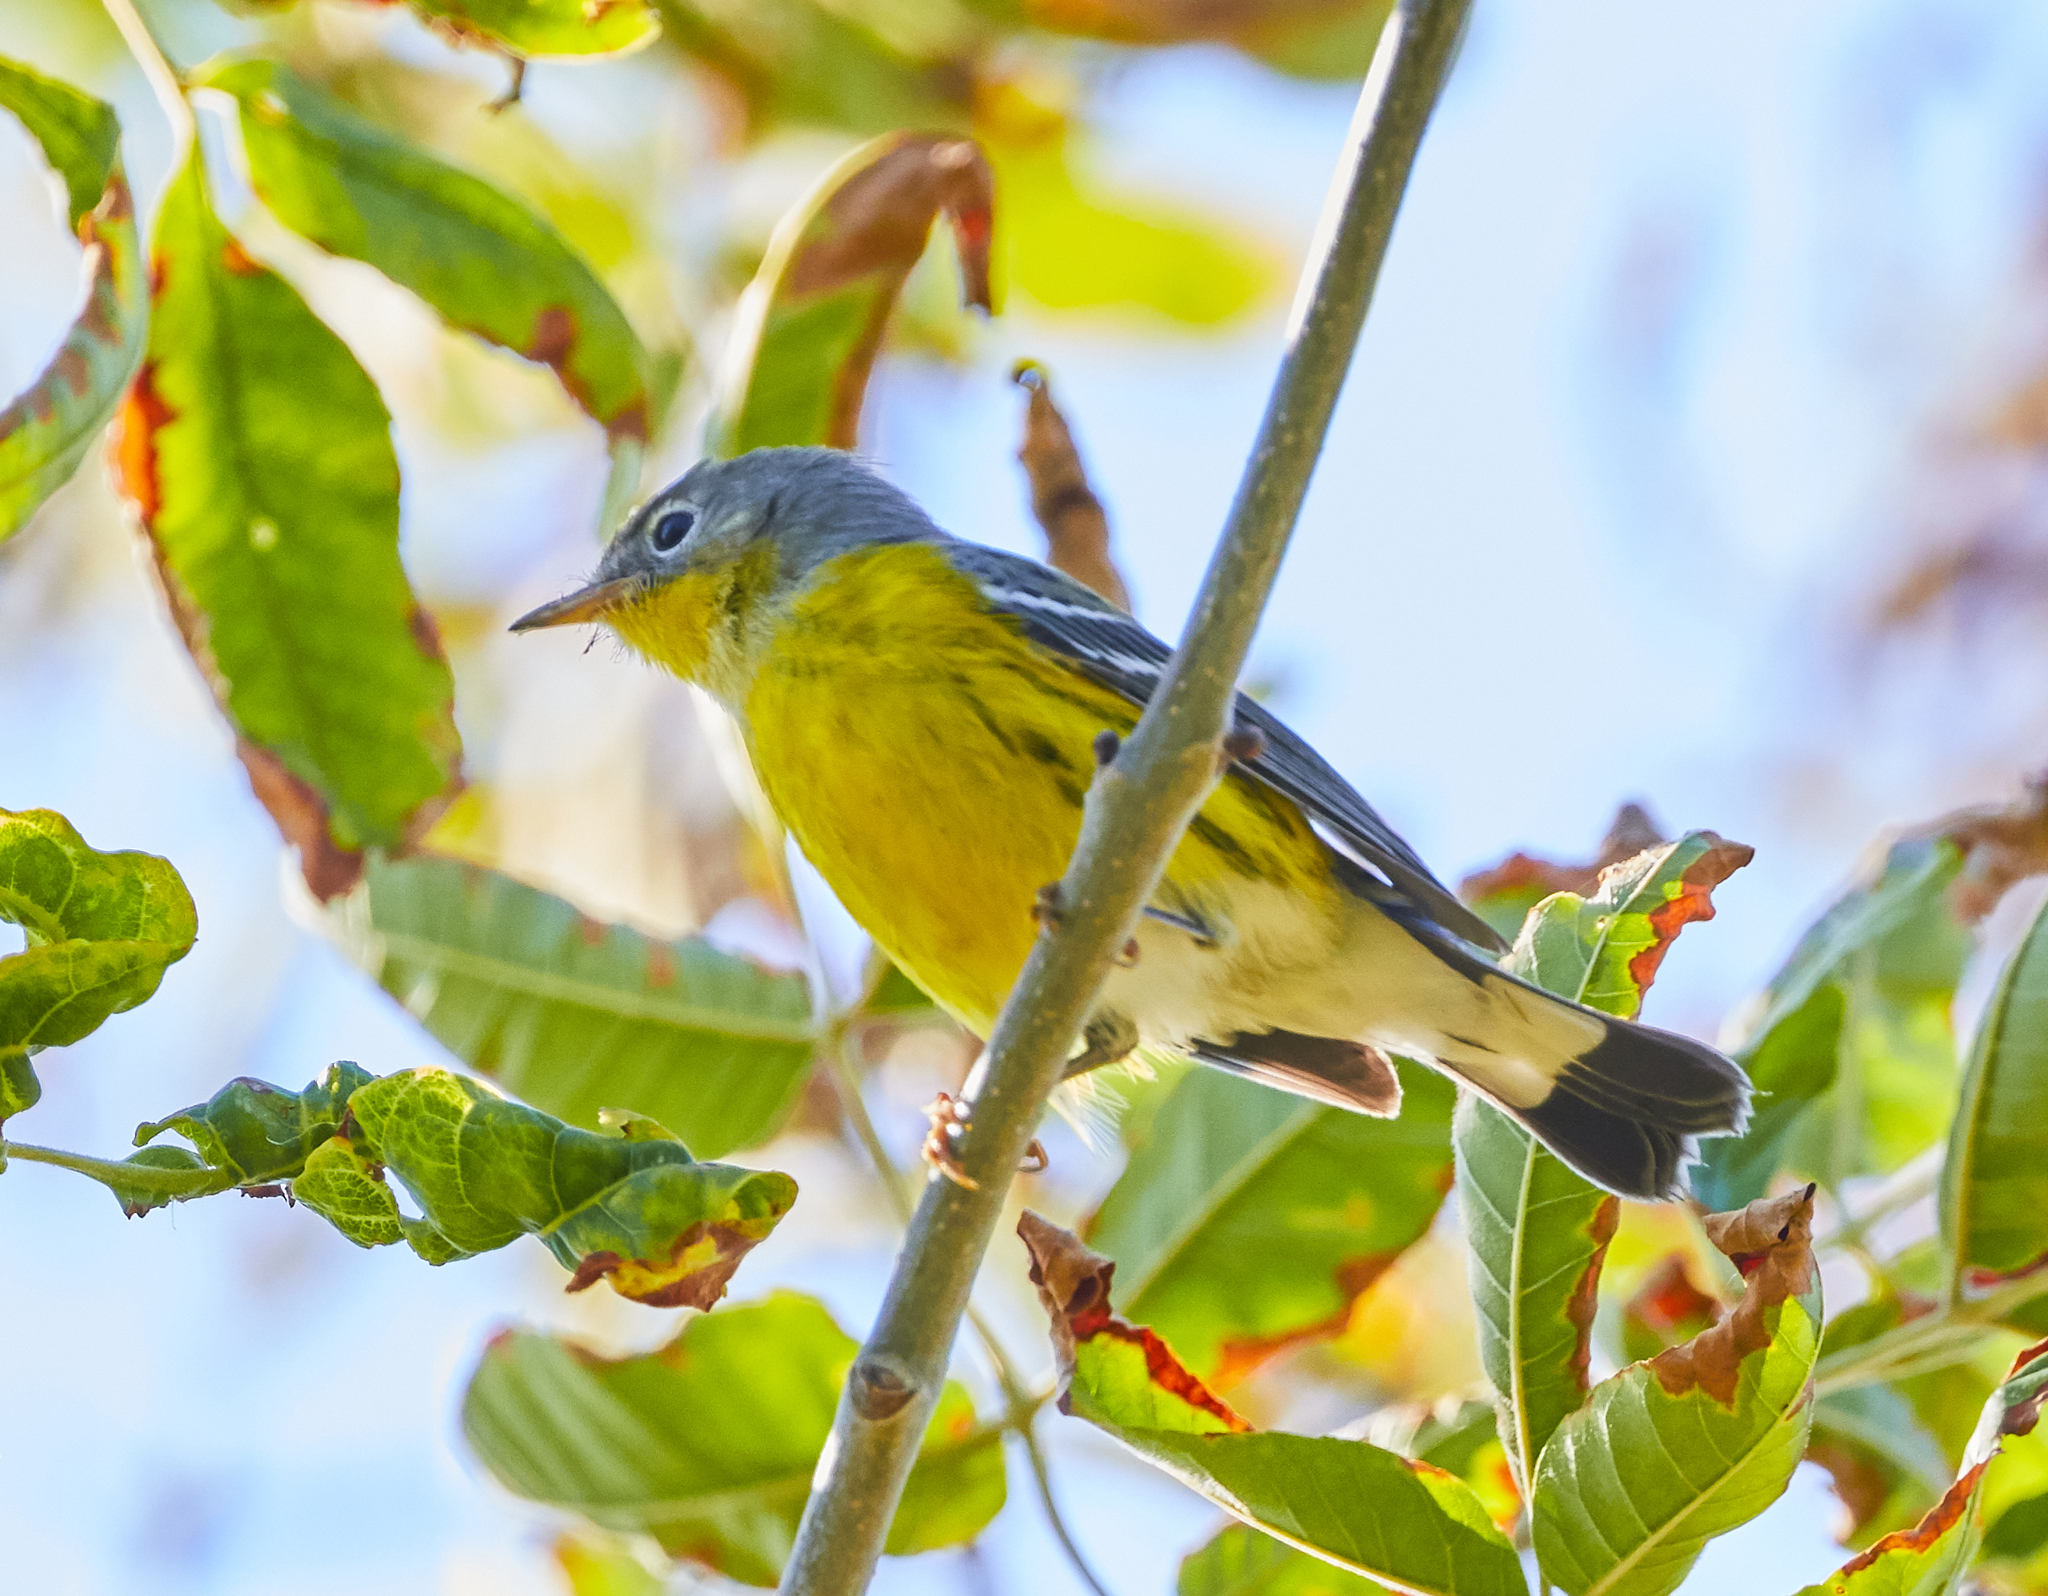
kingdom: Animalia
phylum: Chordata
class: Aves
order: Passeriformes
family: Parulidae
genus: Setophaga
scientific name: Setophaga magnolia
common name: Magnolia warbler
